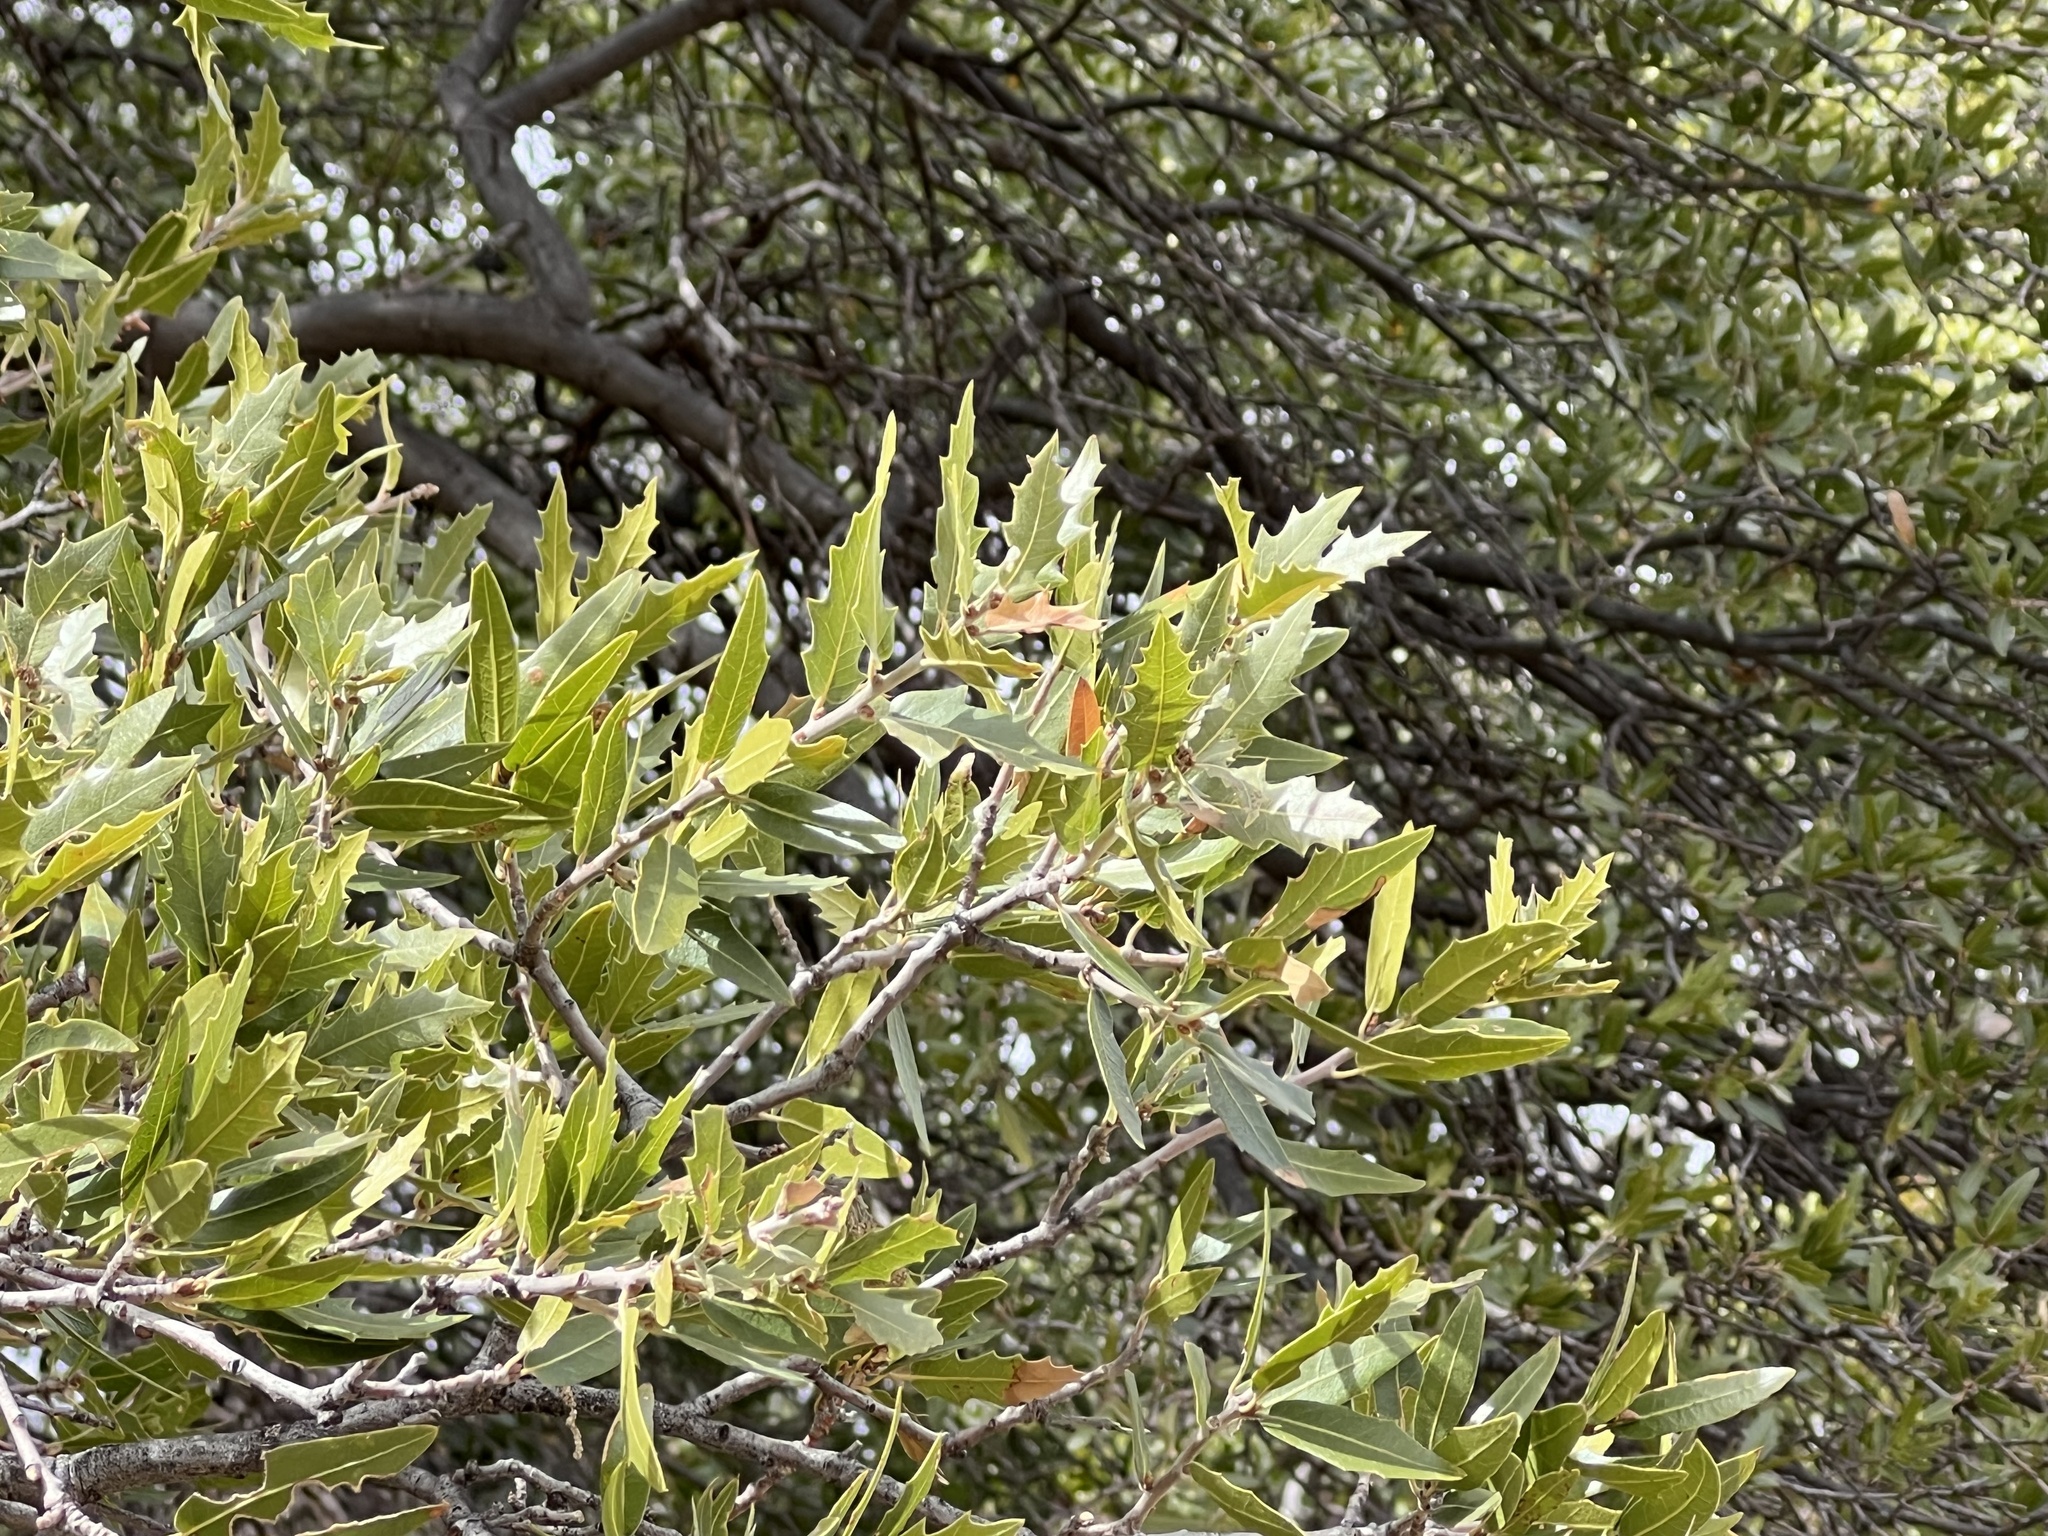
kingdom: Plantae
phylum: Tracheophyta
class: Magnoliopsida
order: Fagales
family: Fagaceae
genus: Quercus
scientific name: Quercus emoryi
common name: Emory oak
